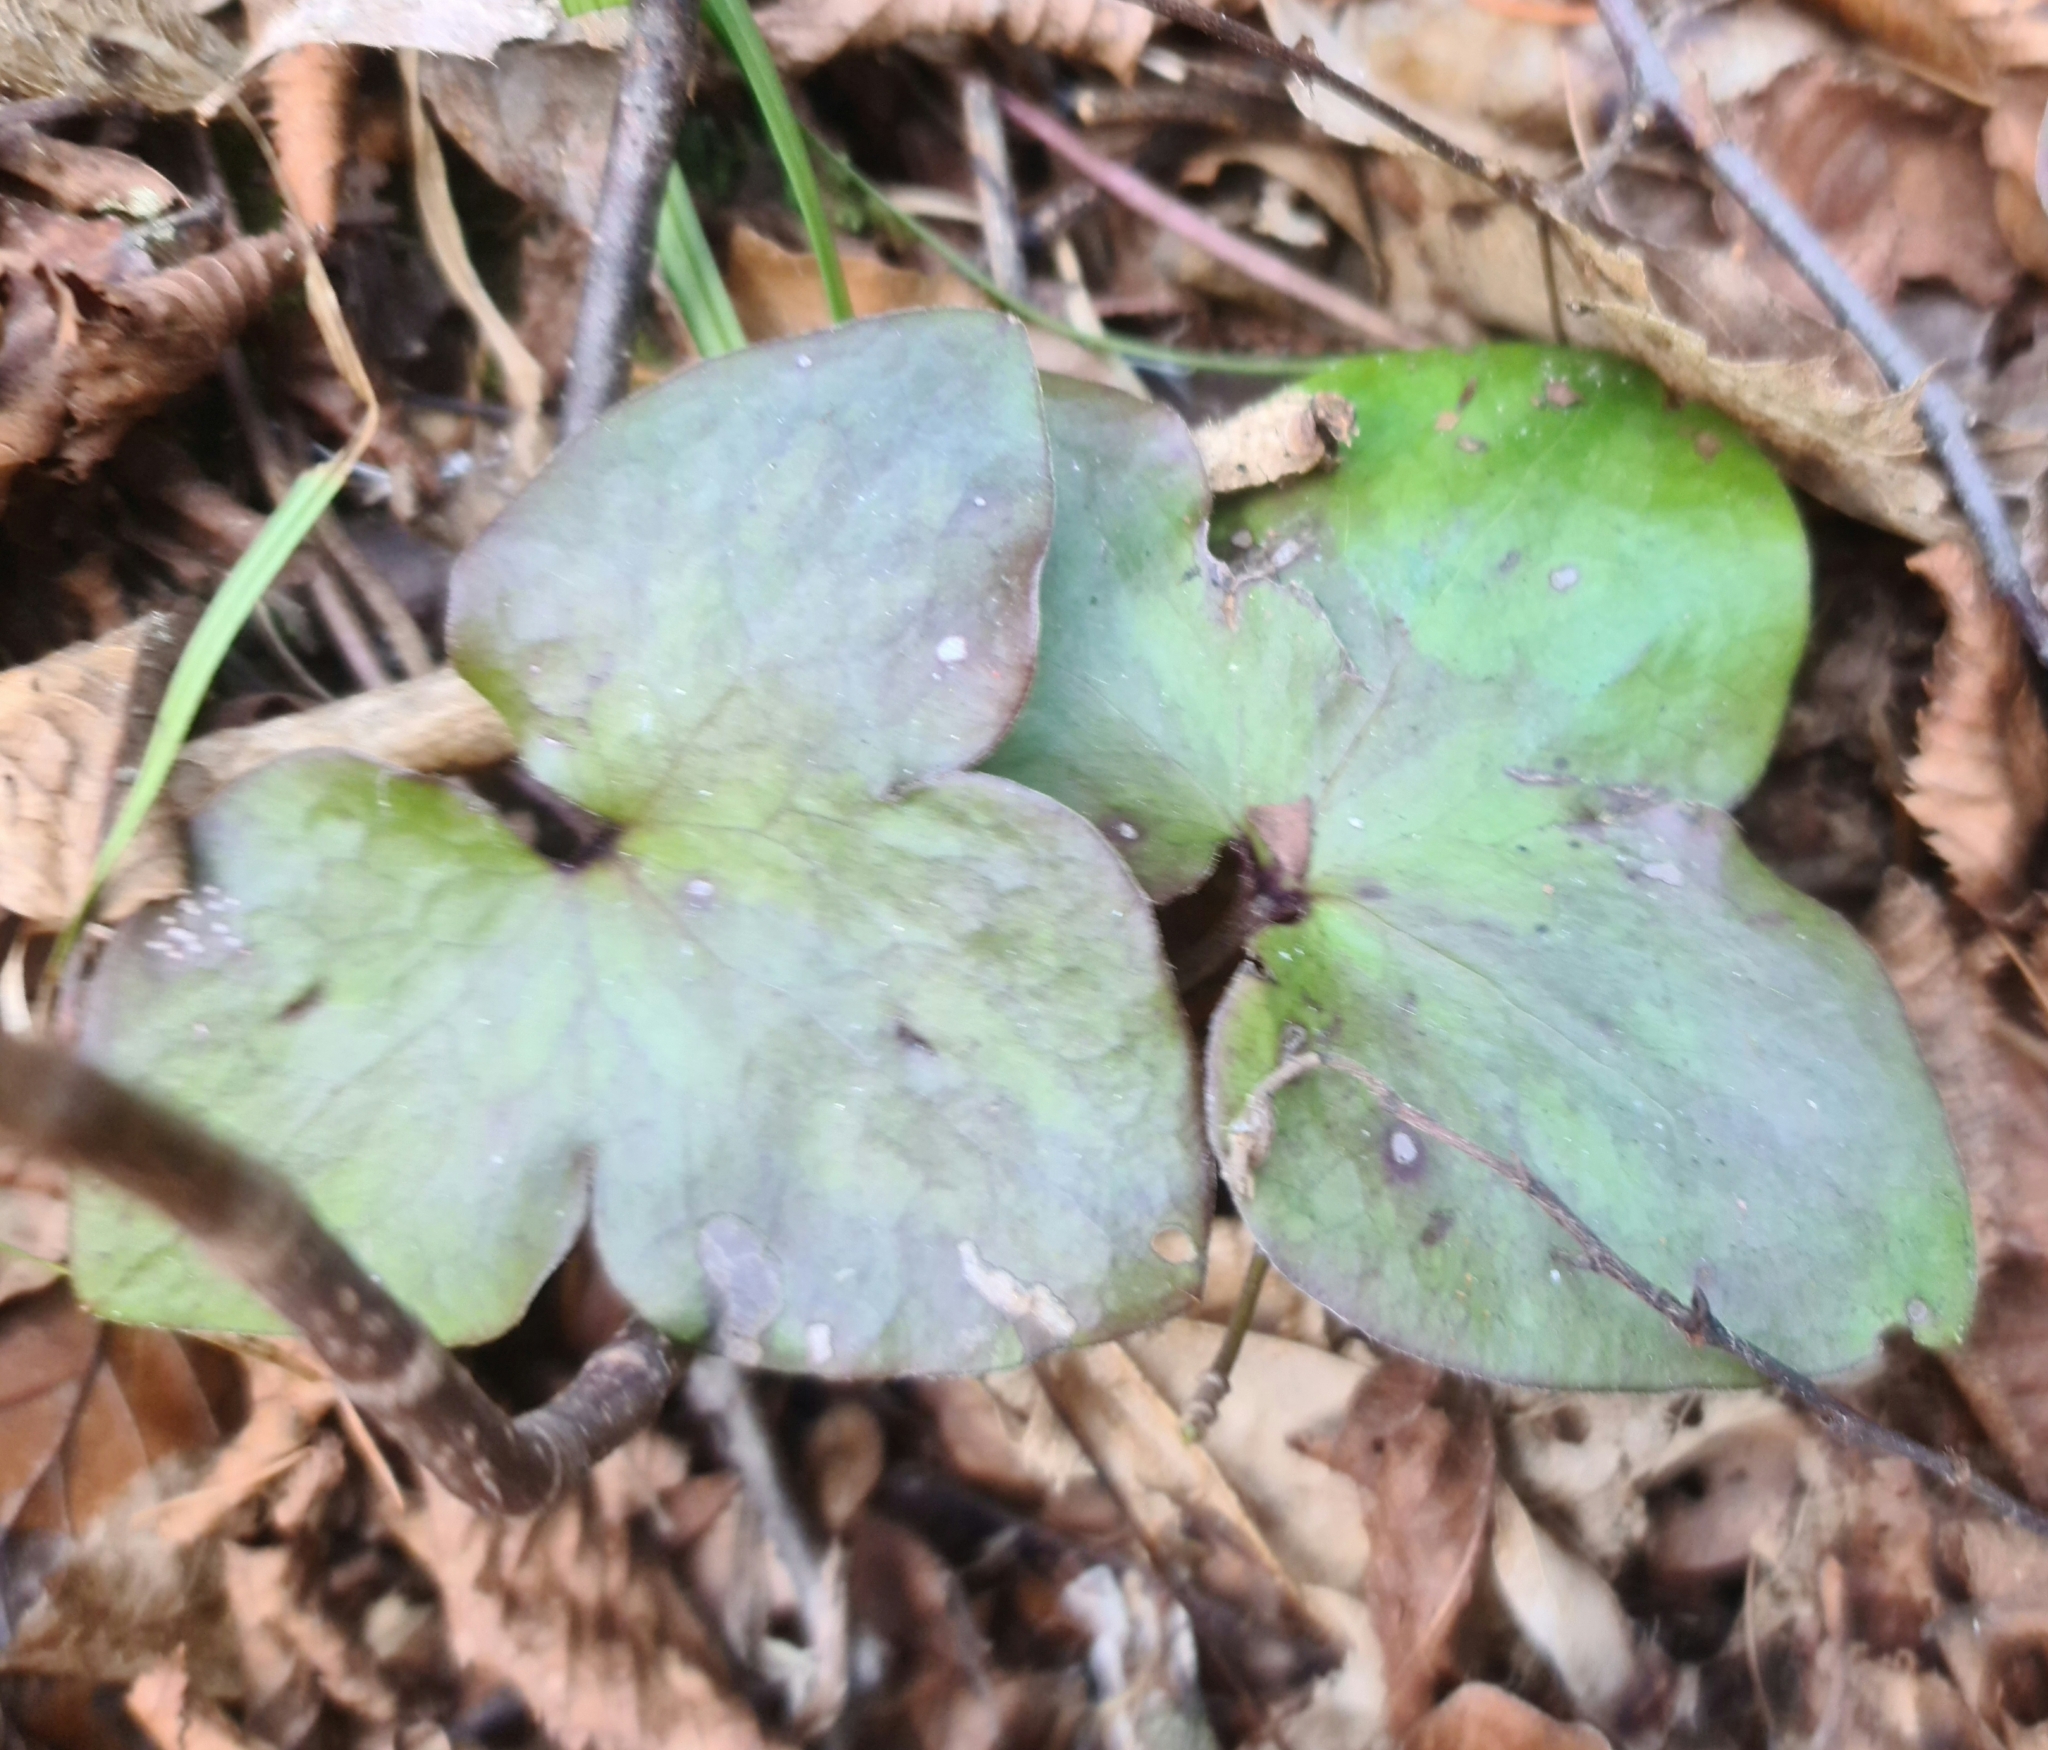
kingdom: Plantae
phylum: Tracheophyta
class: Magnoliopsida
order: Ranunculales
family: Ranunculaceae
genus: Hepatica
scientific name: Hepatica nobilis
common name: Liverleaf
